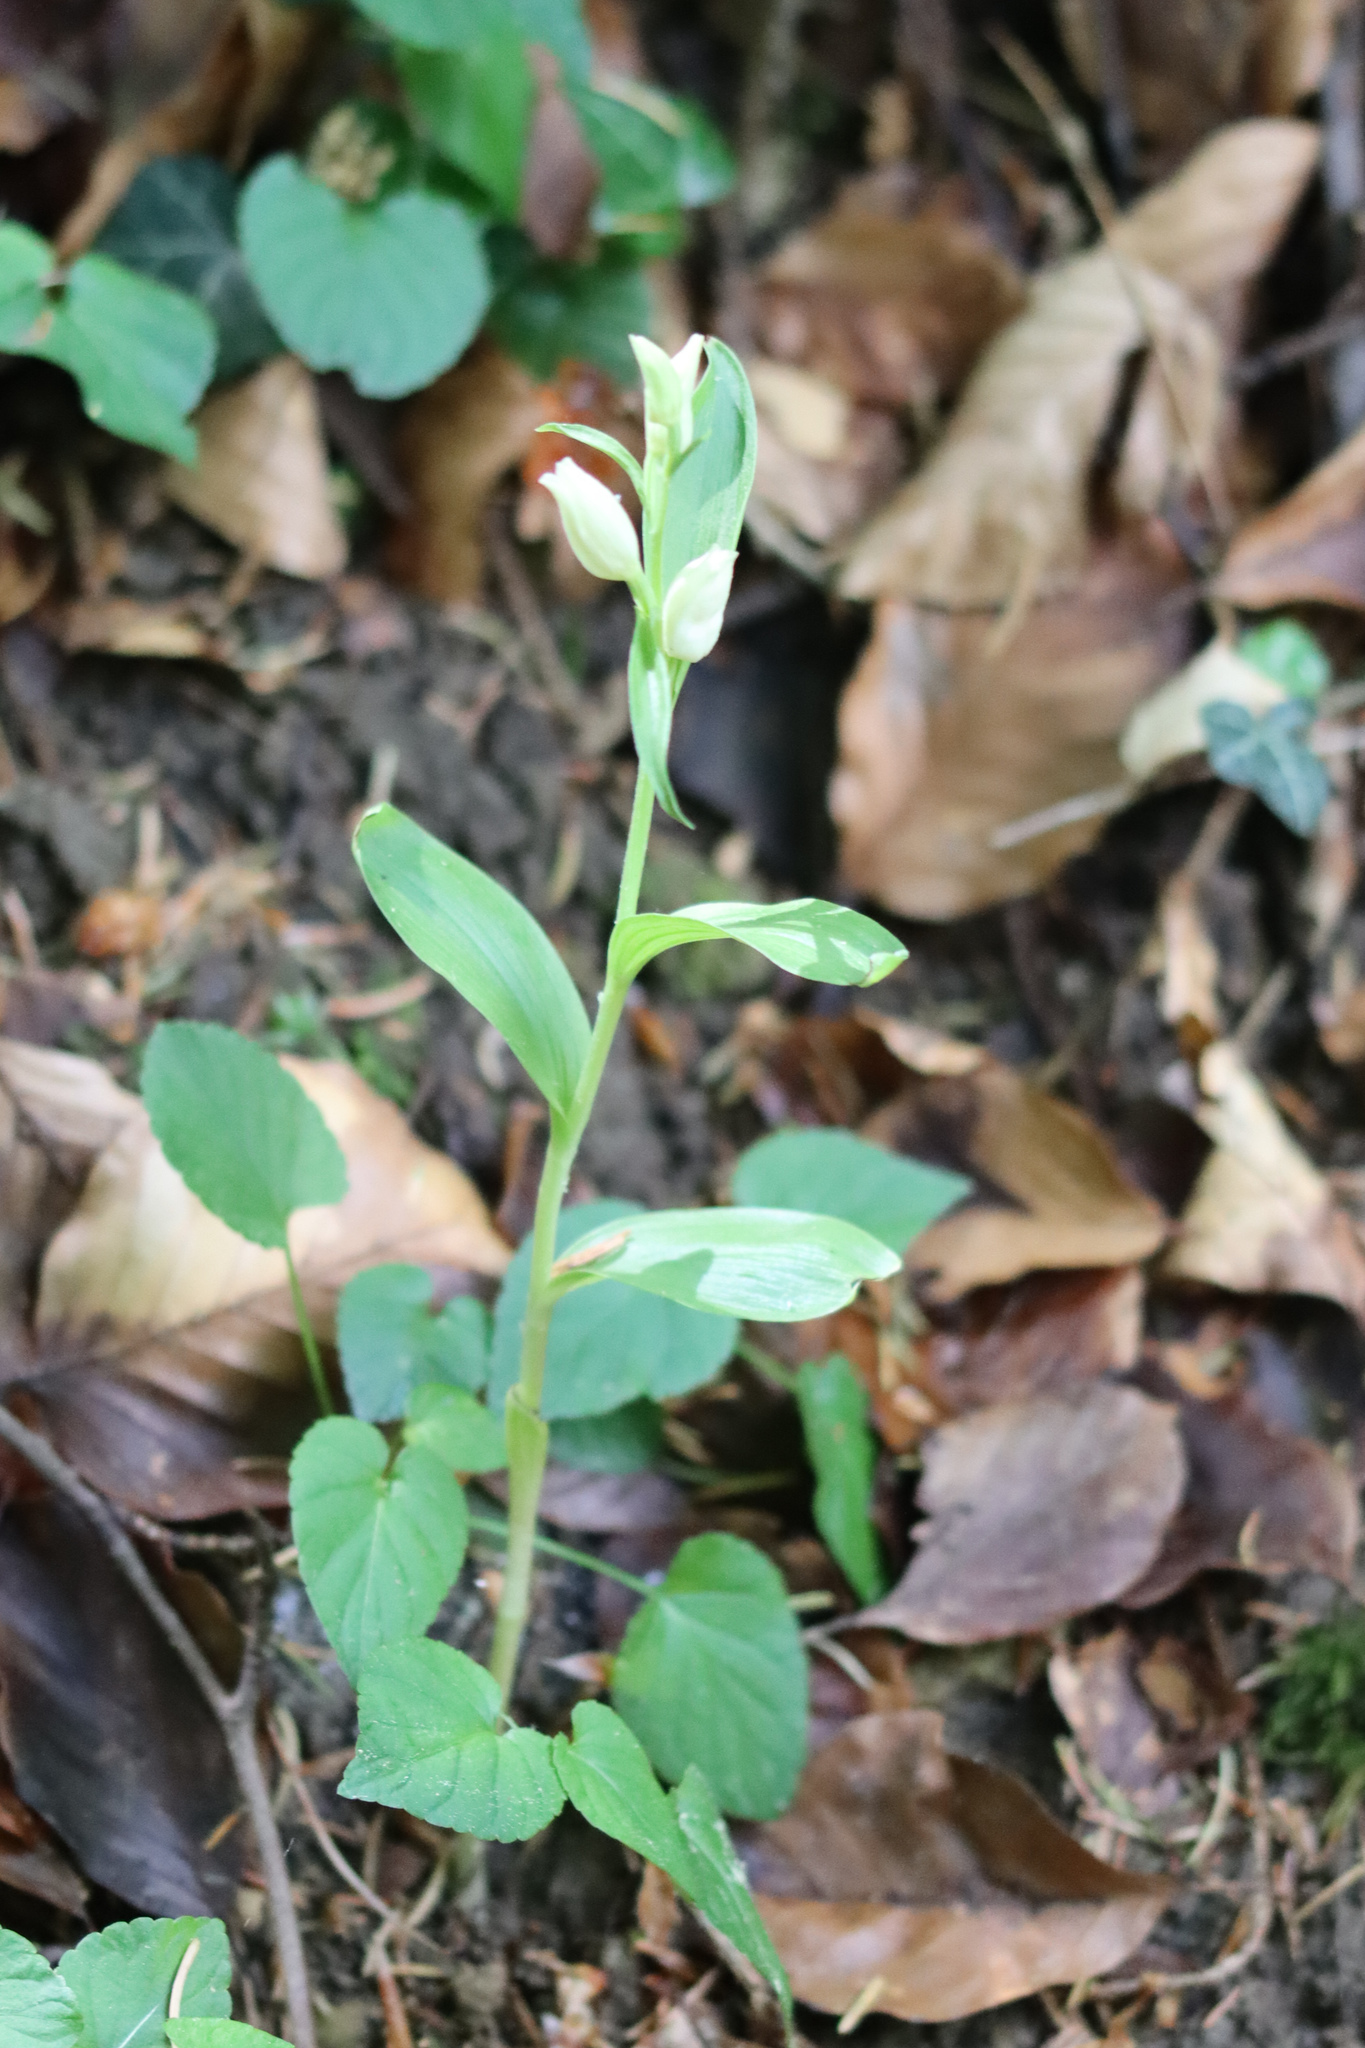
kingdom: Plantae
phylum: Tracheophyta
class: Liliopsida
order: Asparagales
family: Orchidaceae
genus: Cephalanthera
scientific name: Cephalanthera damasonium
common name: White helleborine
